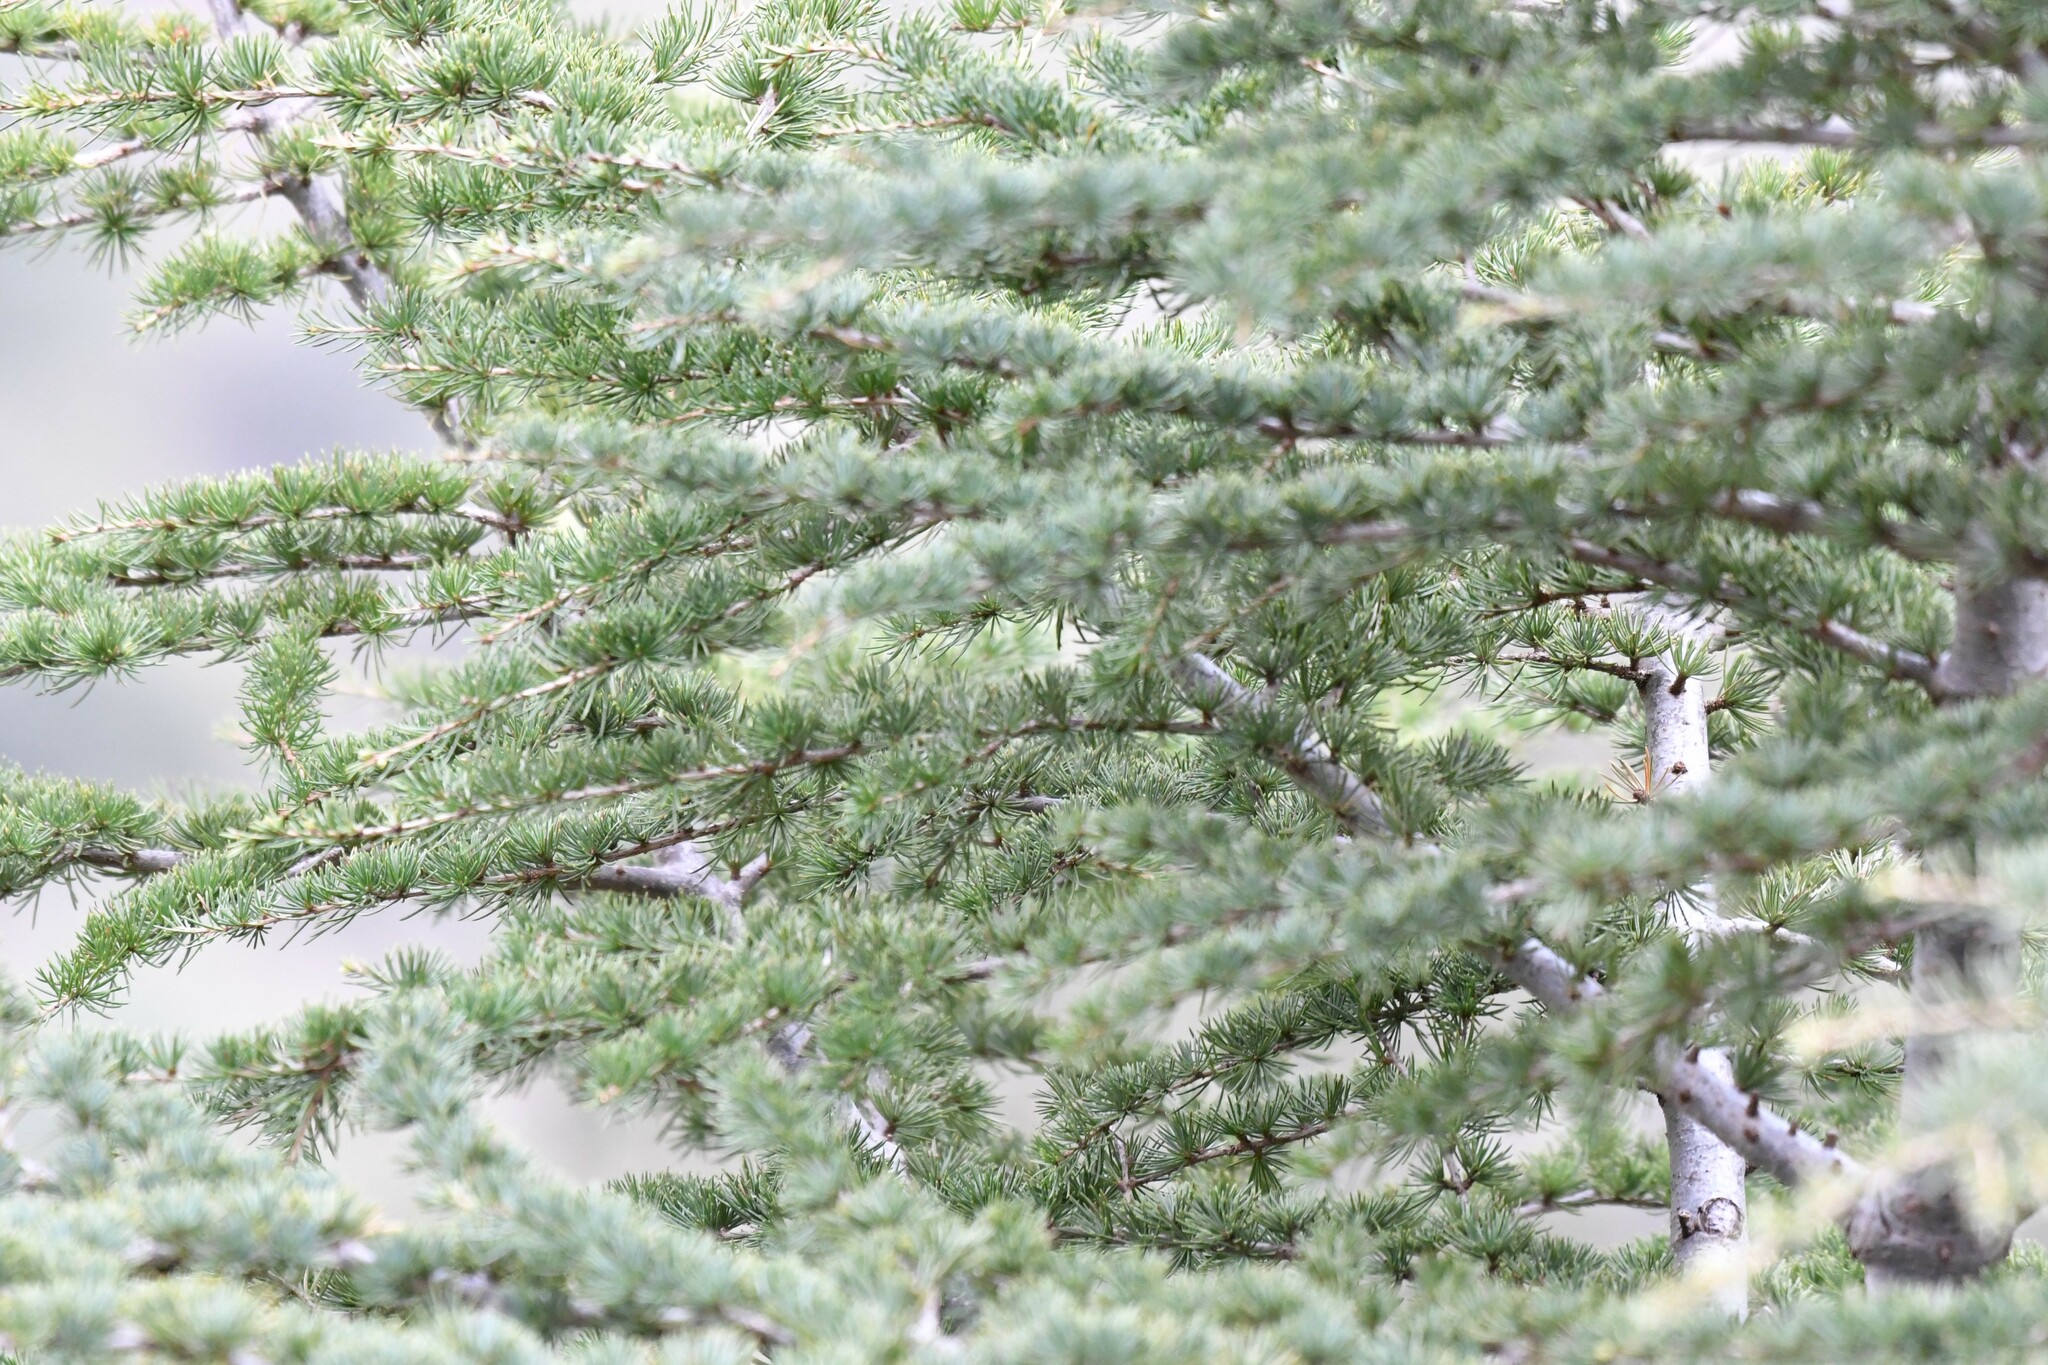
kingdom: Plantae
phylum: Tracheophyta
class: Pinopsida
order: Pinales
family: Pinaceae
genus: Cedrus
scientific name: Cedrus atlantica
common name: Atlas cedar
